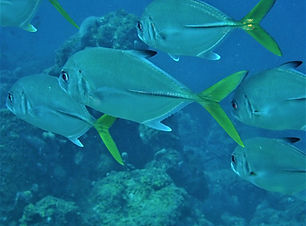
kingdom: Animalia
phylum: Chordata
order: Perciformes
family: Carangidae
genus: Caranx
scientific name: Caranx latus
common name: Horse eye jack
